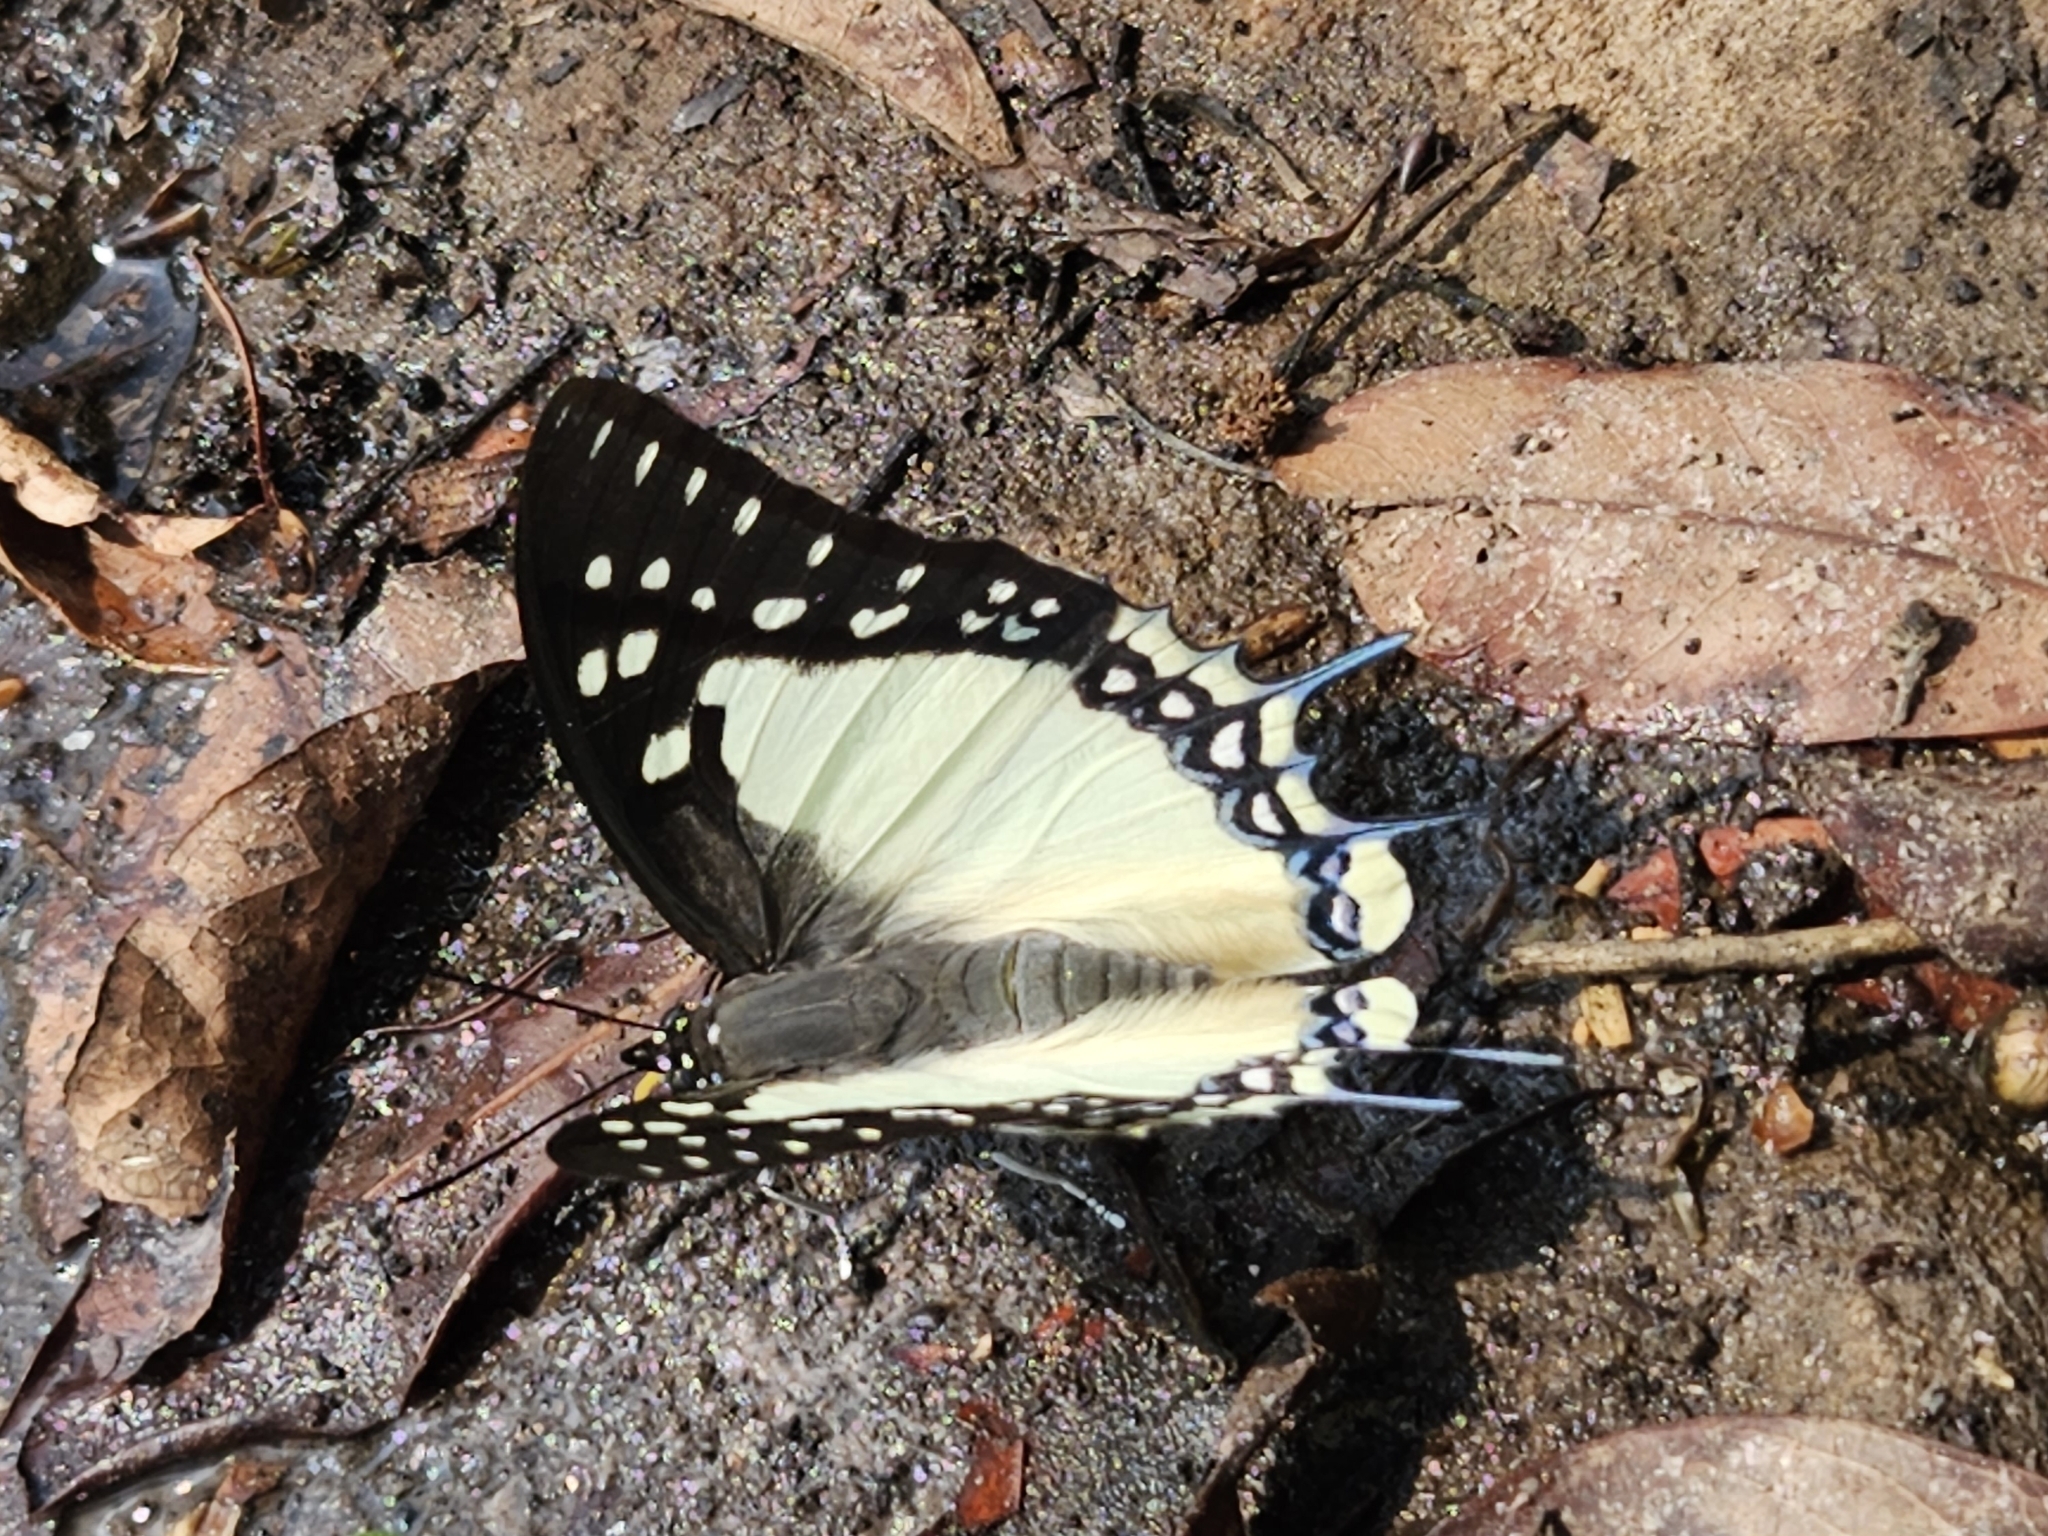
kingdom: Animalia
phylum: Arthropoda
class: Insecta
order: Lepidoptera
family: Nymphalidae
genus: Polyura
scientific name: Polyura eudamippus
